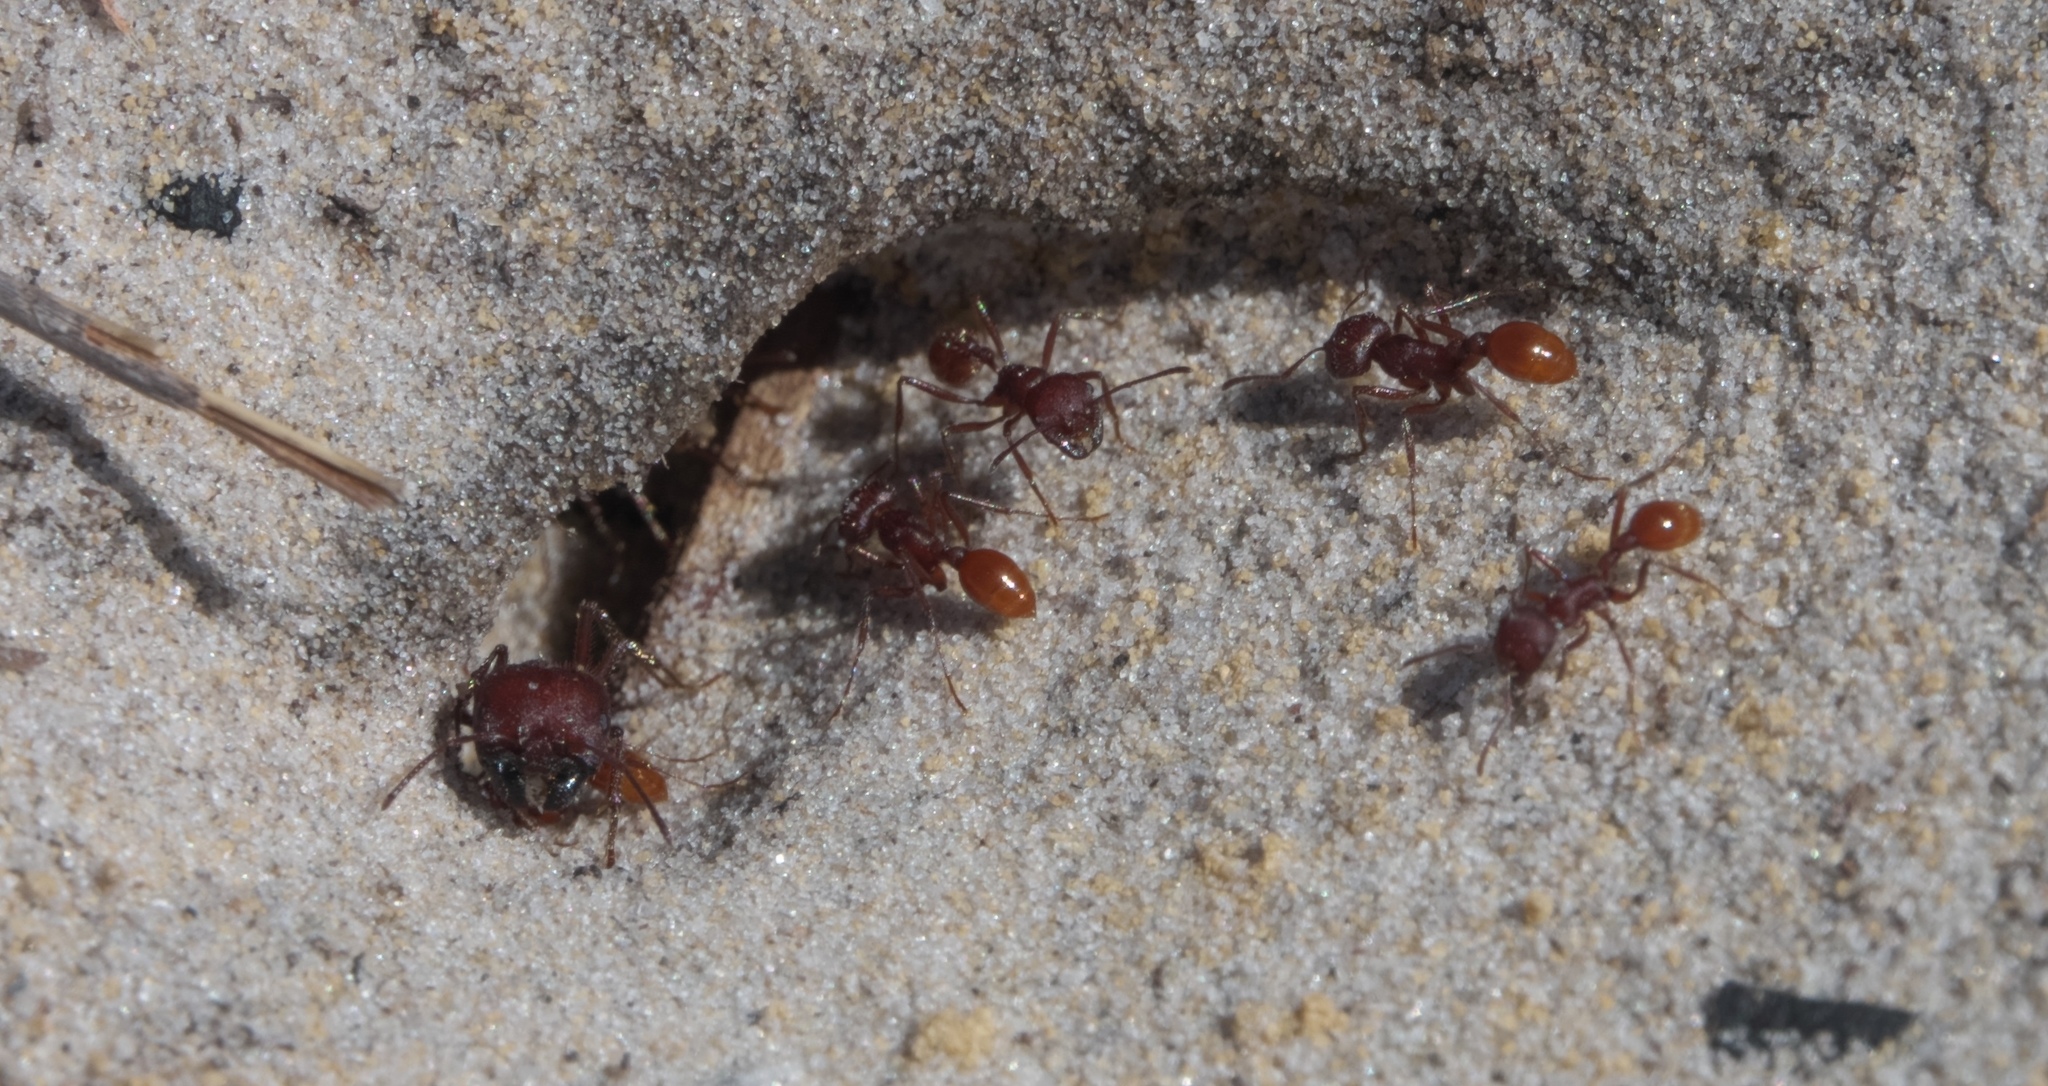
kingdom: Animalia
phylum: Arthropoda
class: Insecta
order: Hymenoptera
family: Formicidae
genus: Pogonomyrmex
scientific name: Pogonomyrmex badius
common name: Florida harvester ant
